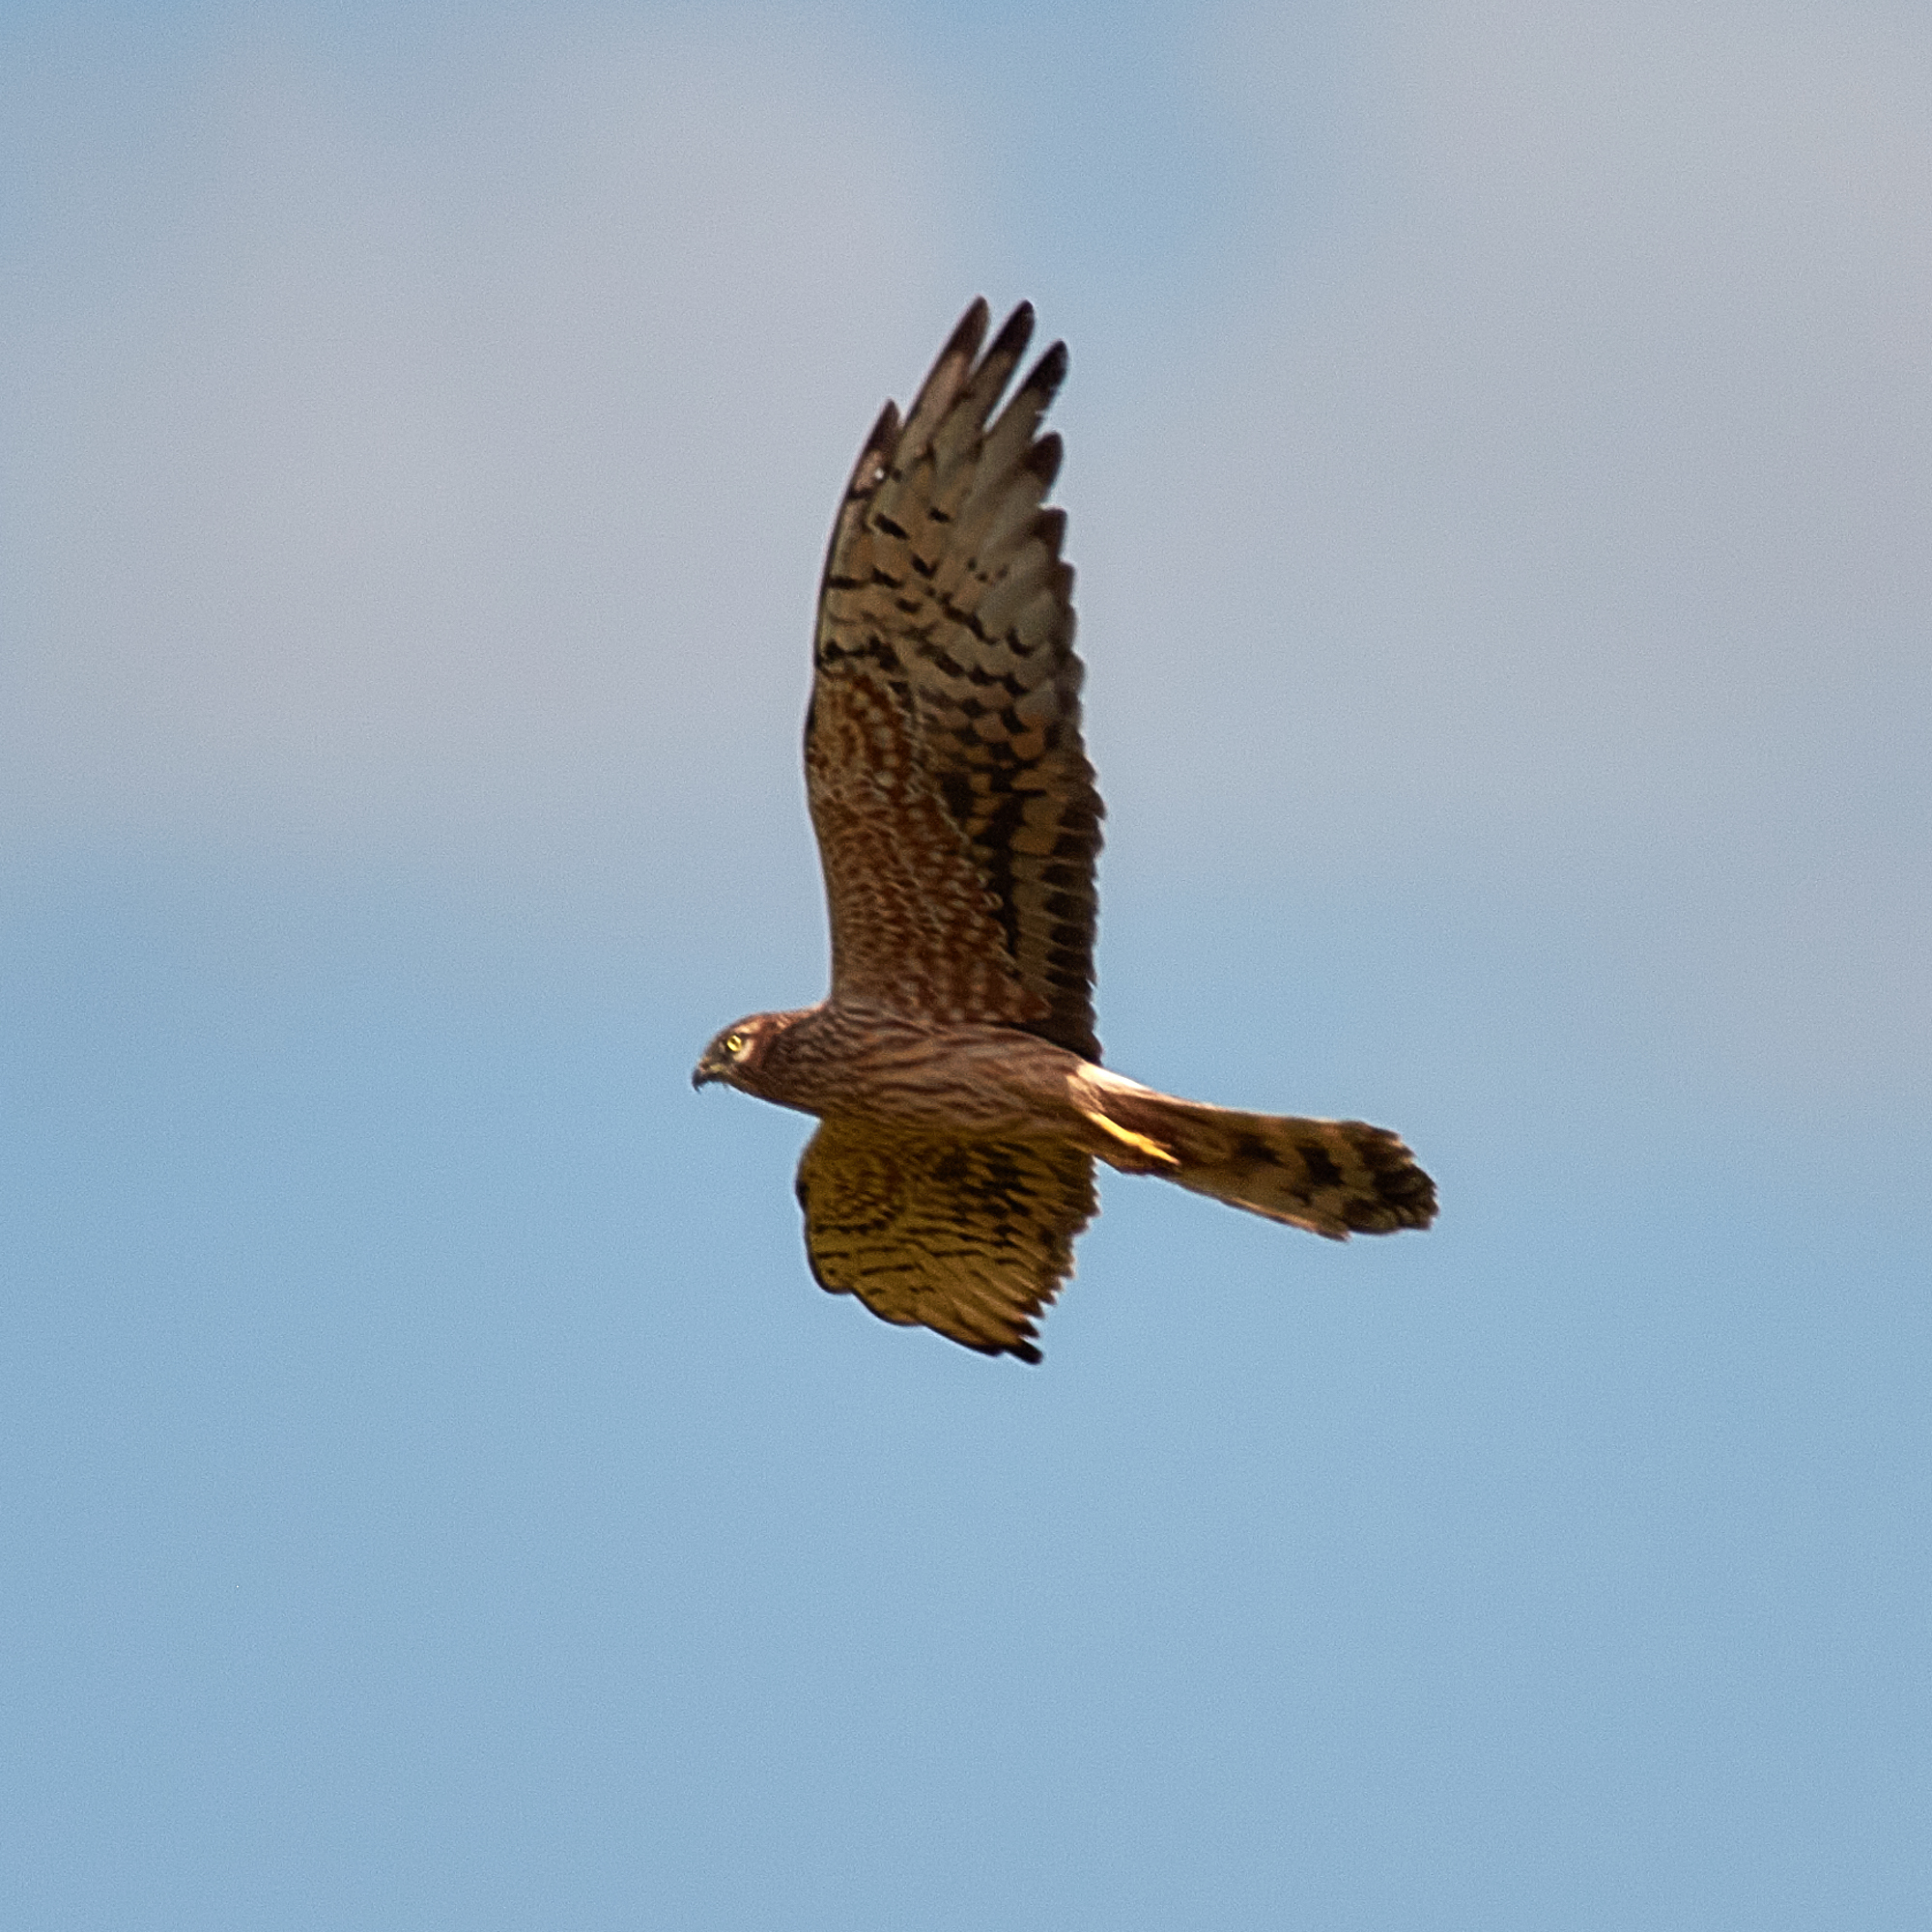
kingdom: Animalia
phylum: Chordata
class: Aves
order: Accipitriformes
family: Accipitridae
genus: Circus
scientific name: Circus pygargus
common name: Montagu's harrier
